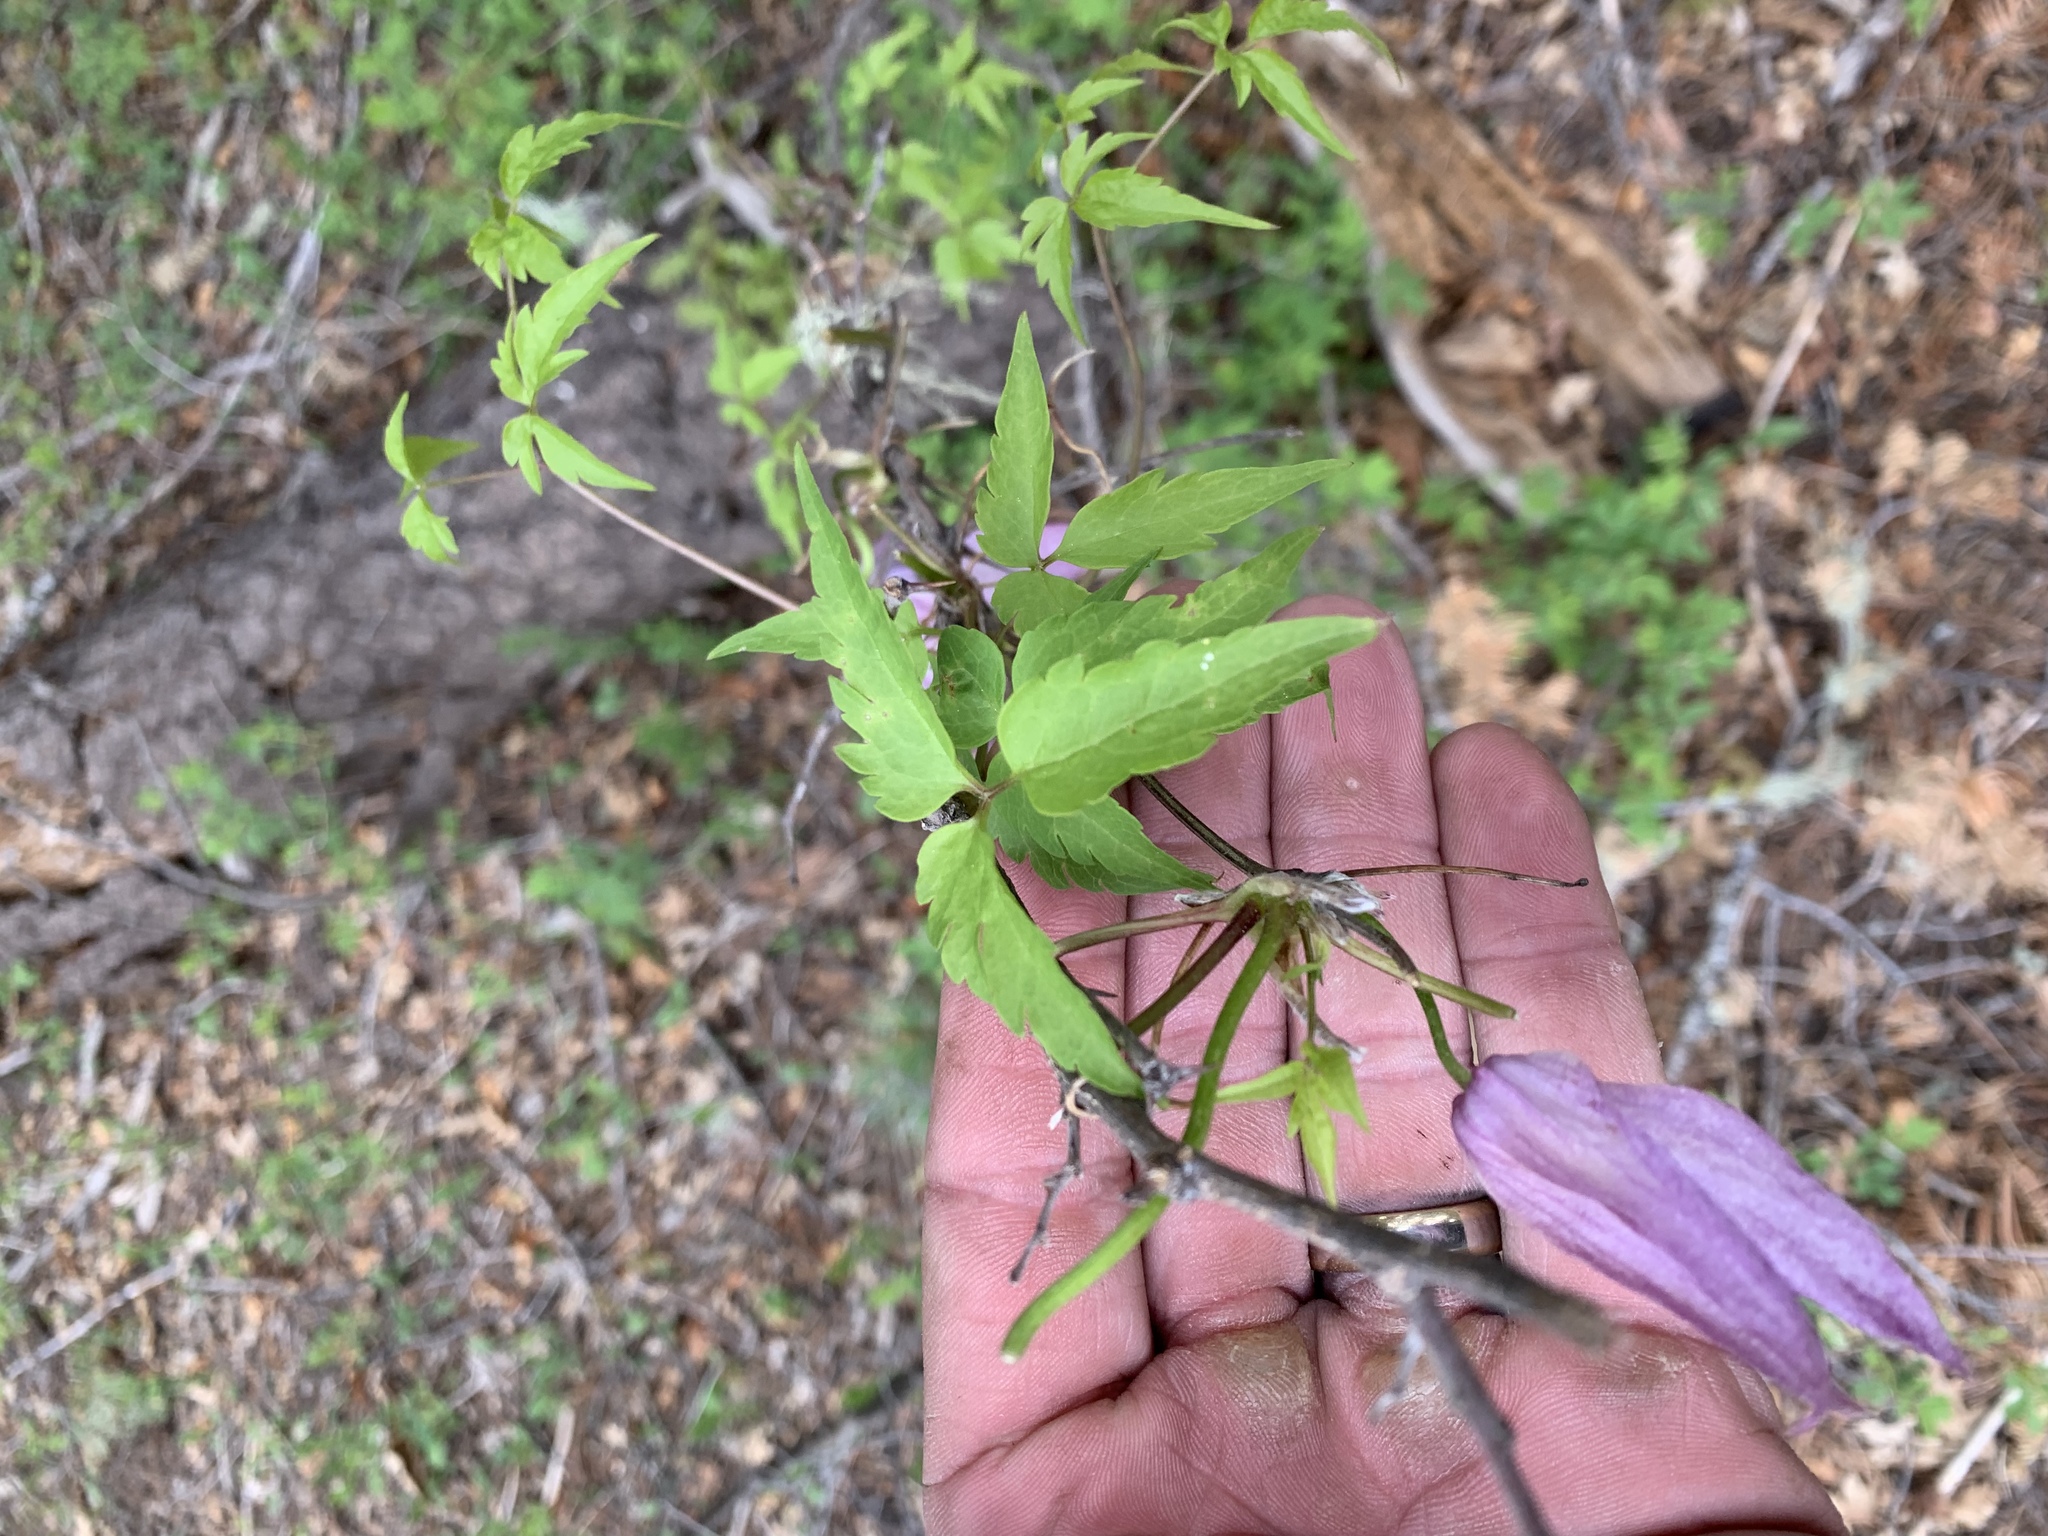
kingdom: Plantae
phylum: Tracheophyta
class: Magnoliopsida
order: Ranunculales
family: Ranunculaceae
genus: Clematis
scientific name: Clematis columbiana
